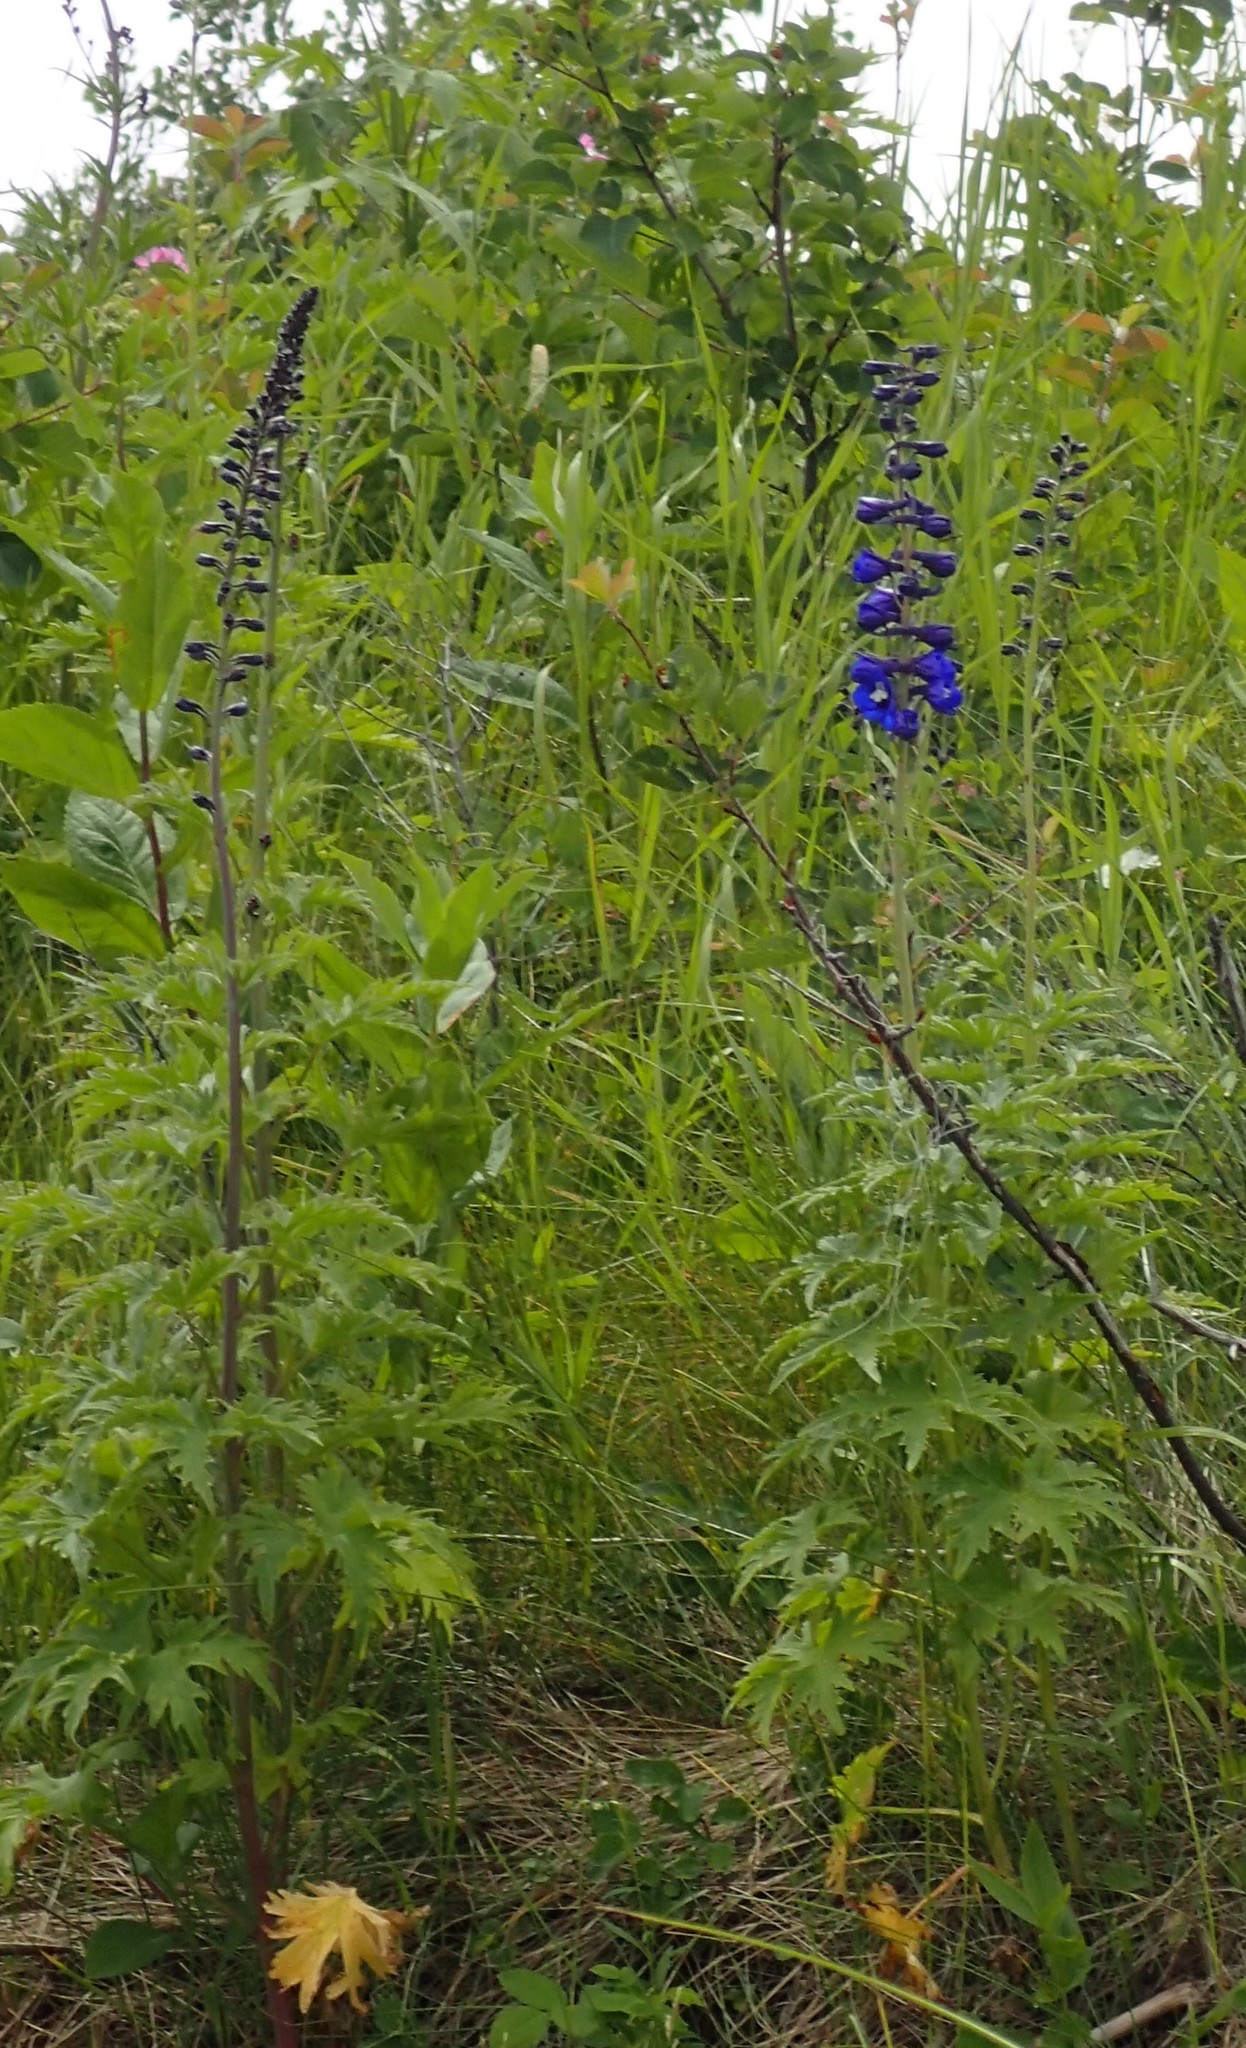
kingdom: Plantae
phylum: Tracheophyta
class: Magnoliopsida
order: Ranunculales
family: Ranunculaceae
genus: Delphinium
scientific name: Delphinium glaucum
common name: Brown's larkspur
